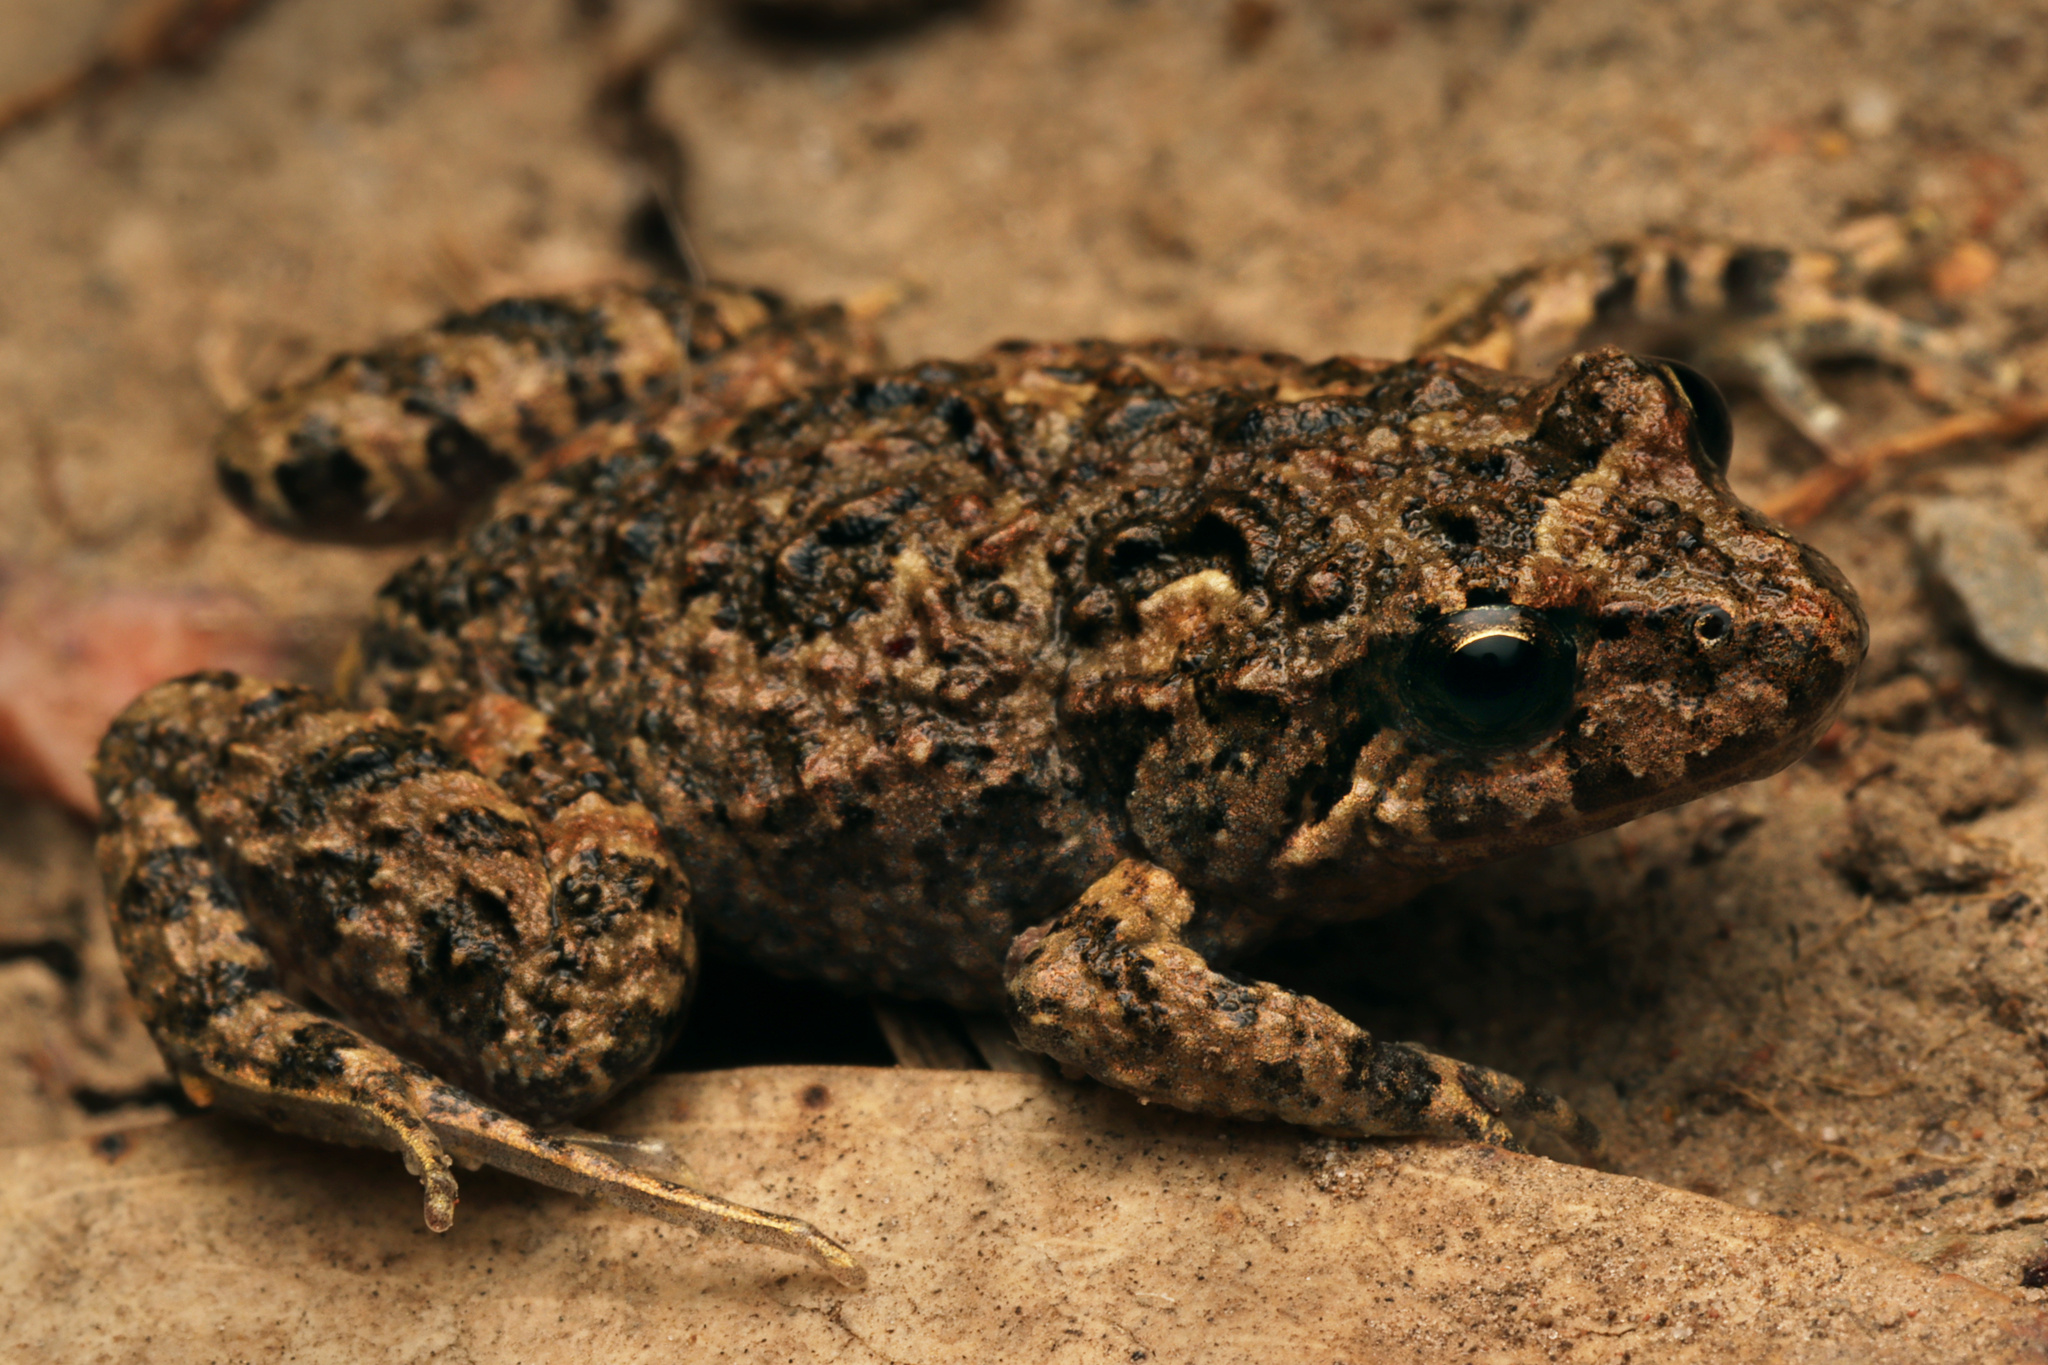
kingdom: Animalia
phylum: Chordata
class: Amphibia
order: Anura
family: Myobatrachidae
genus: Crinia
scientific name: Crinia signifera
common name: Brown froglet
